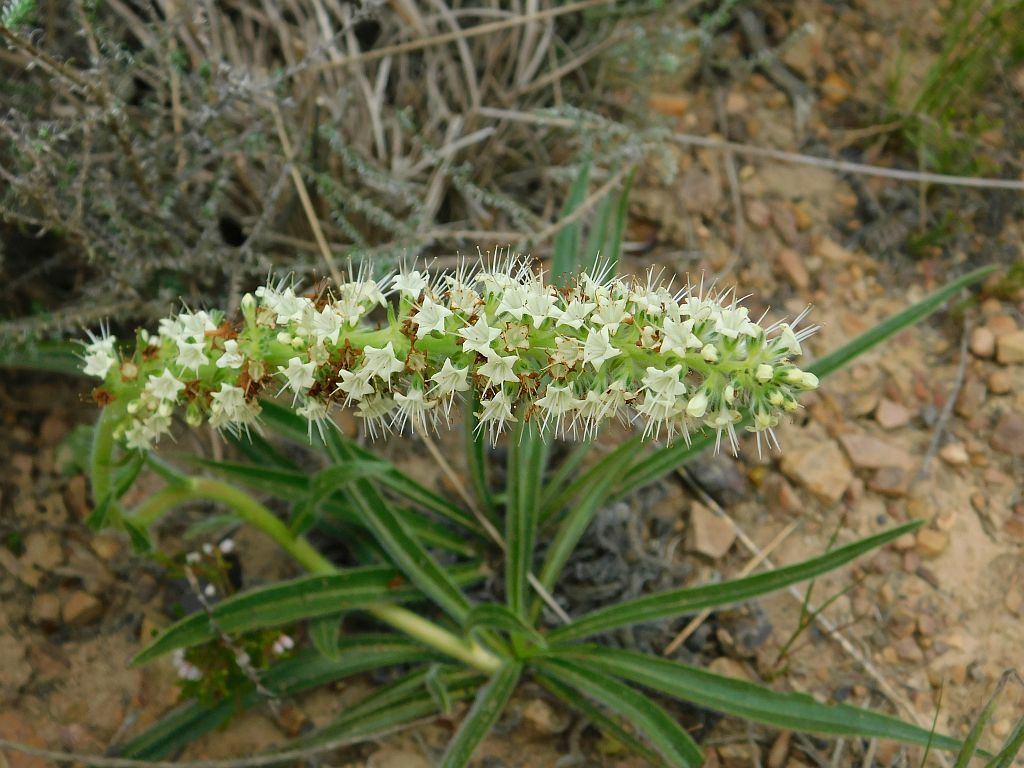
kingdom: Plantae
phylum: Tracheophyta
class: Magnoliopsida
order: Boraginales
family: Boraginaceae
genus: Lobostemon
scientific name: Lobostemon splendens
